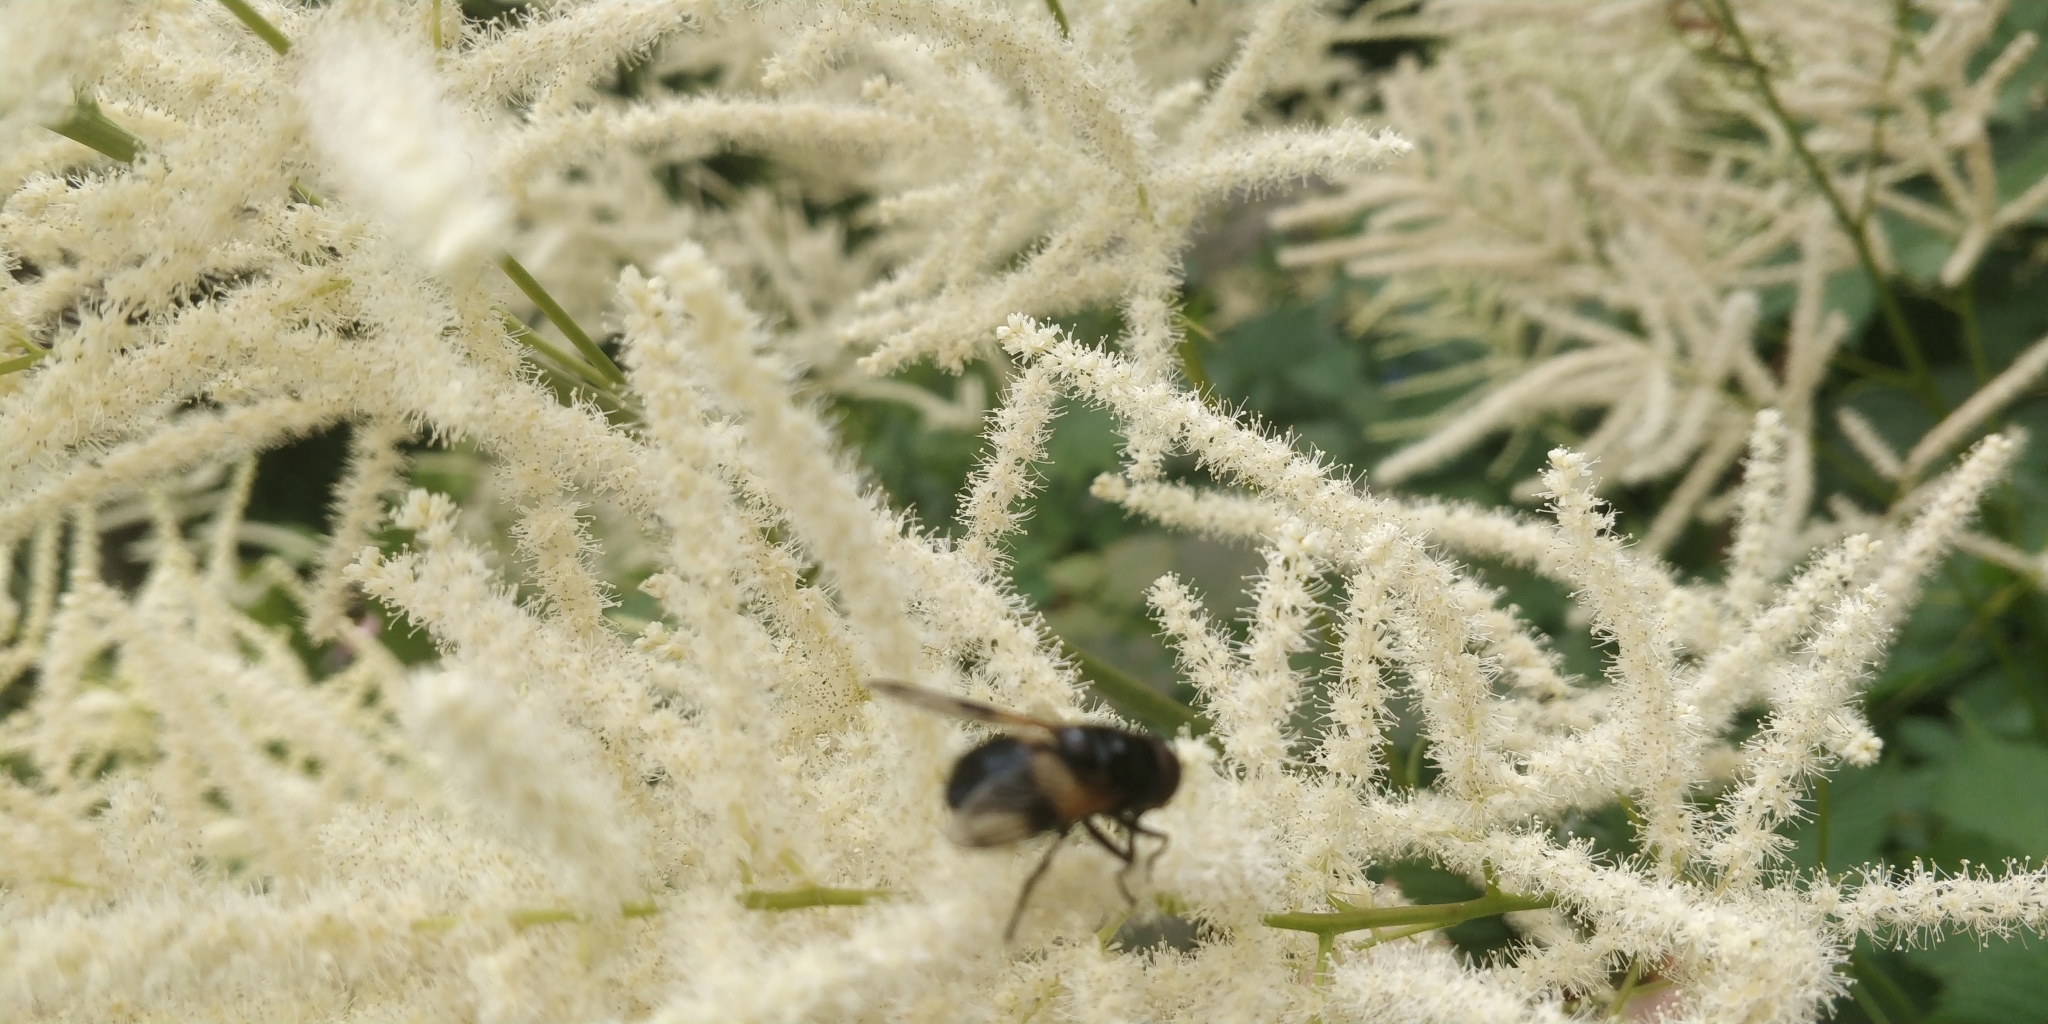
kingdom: Animalia
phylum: Arthropoda
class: Insecta
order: Diptera
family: Syrphidae
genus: Volucella
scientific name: Volucella pellucens
